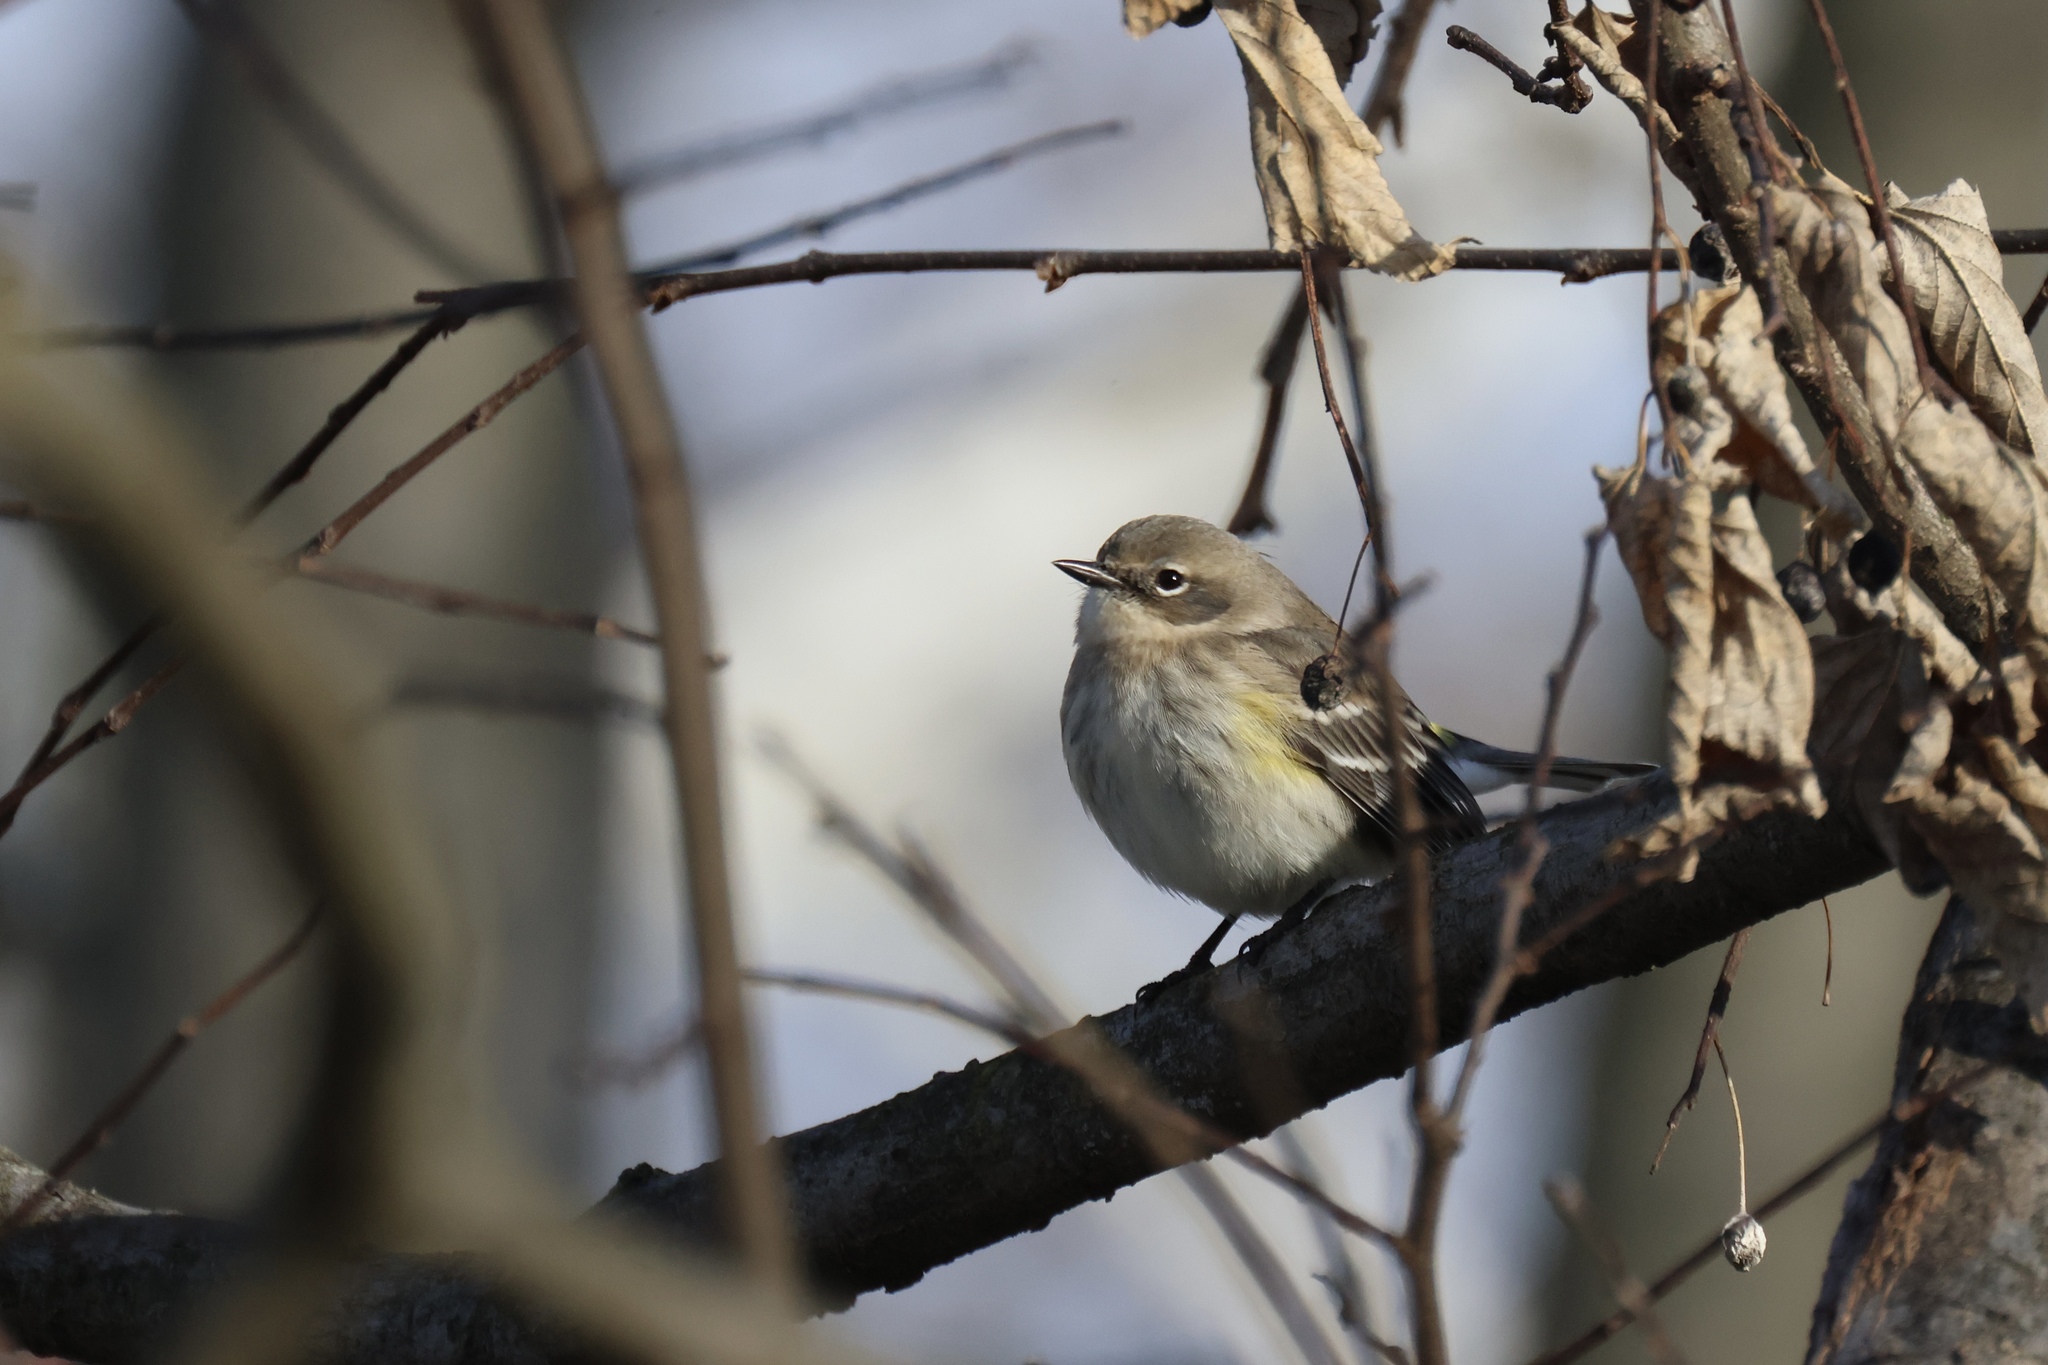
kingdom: Animalia
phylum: Chordata
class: Aves
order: Passeriformes
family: Parulidae
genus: Setophaga
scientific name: Setophaga coronata
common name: Myrtle warbler
